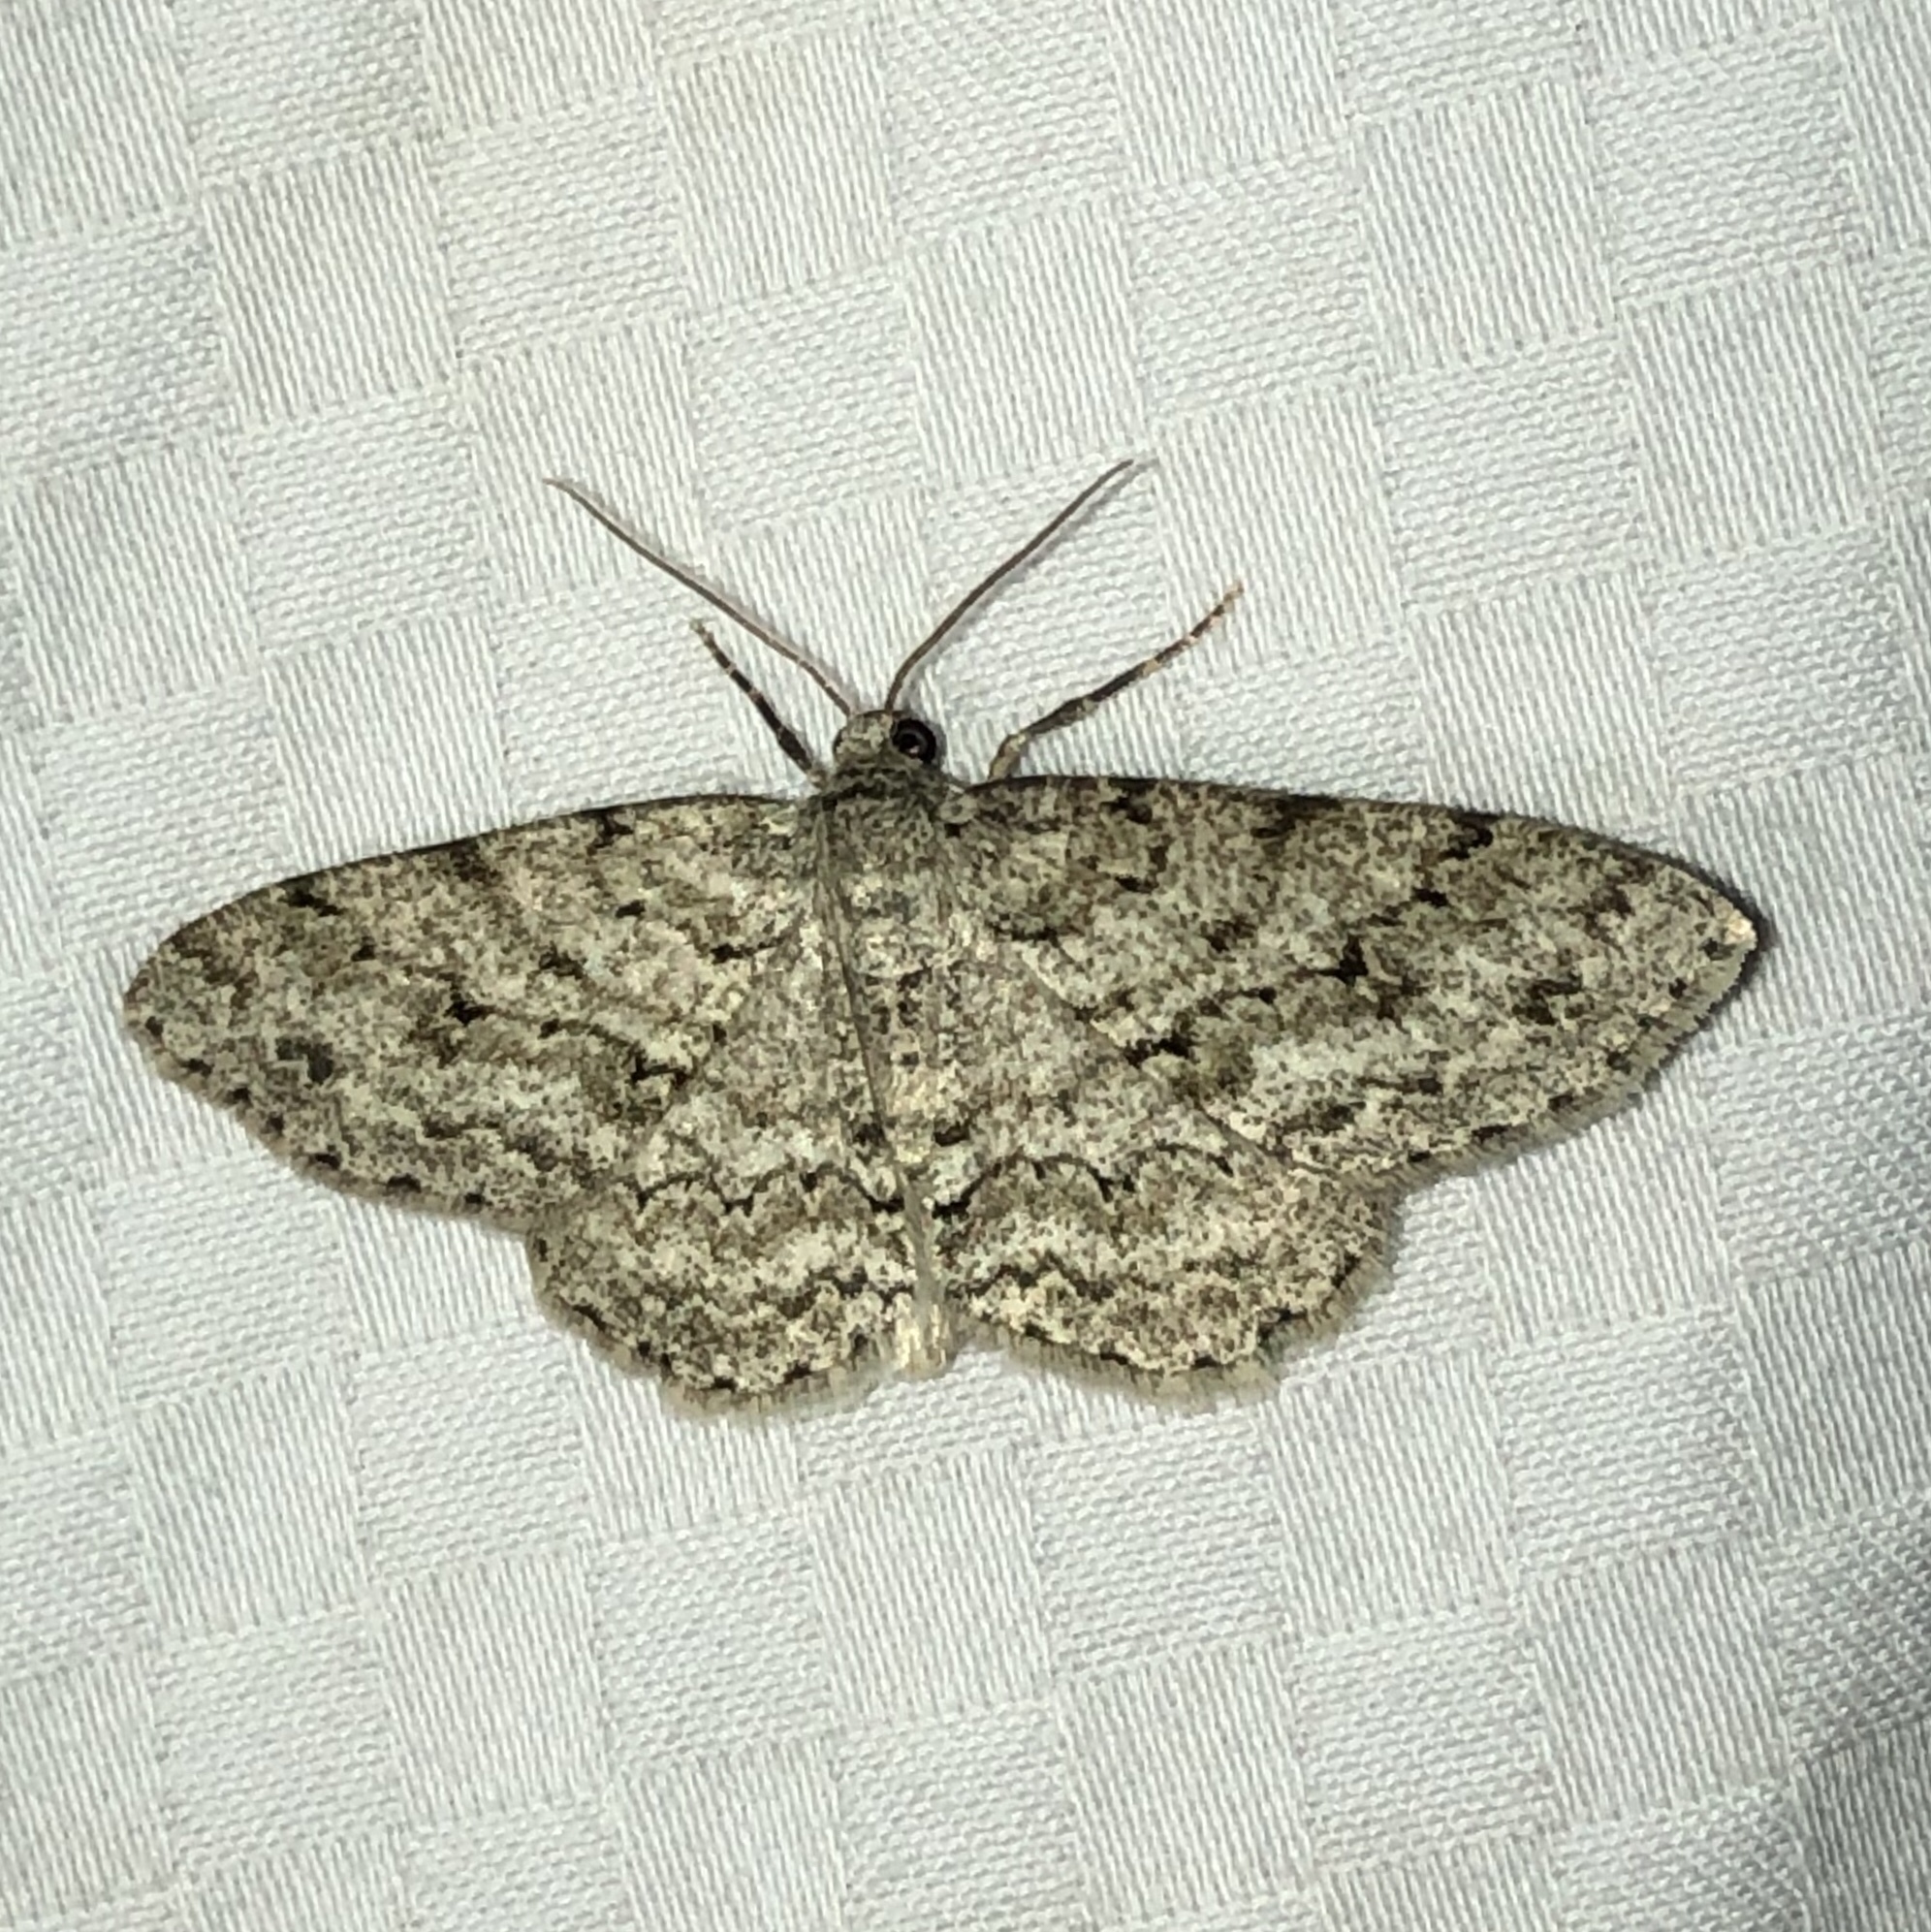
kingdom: Animalia
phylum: Arthropoda
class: Insecta
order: Lepidoptera
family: Geometridae
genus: Ectropis
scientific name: Ectropis crepuscularia
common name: Engrailed
